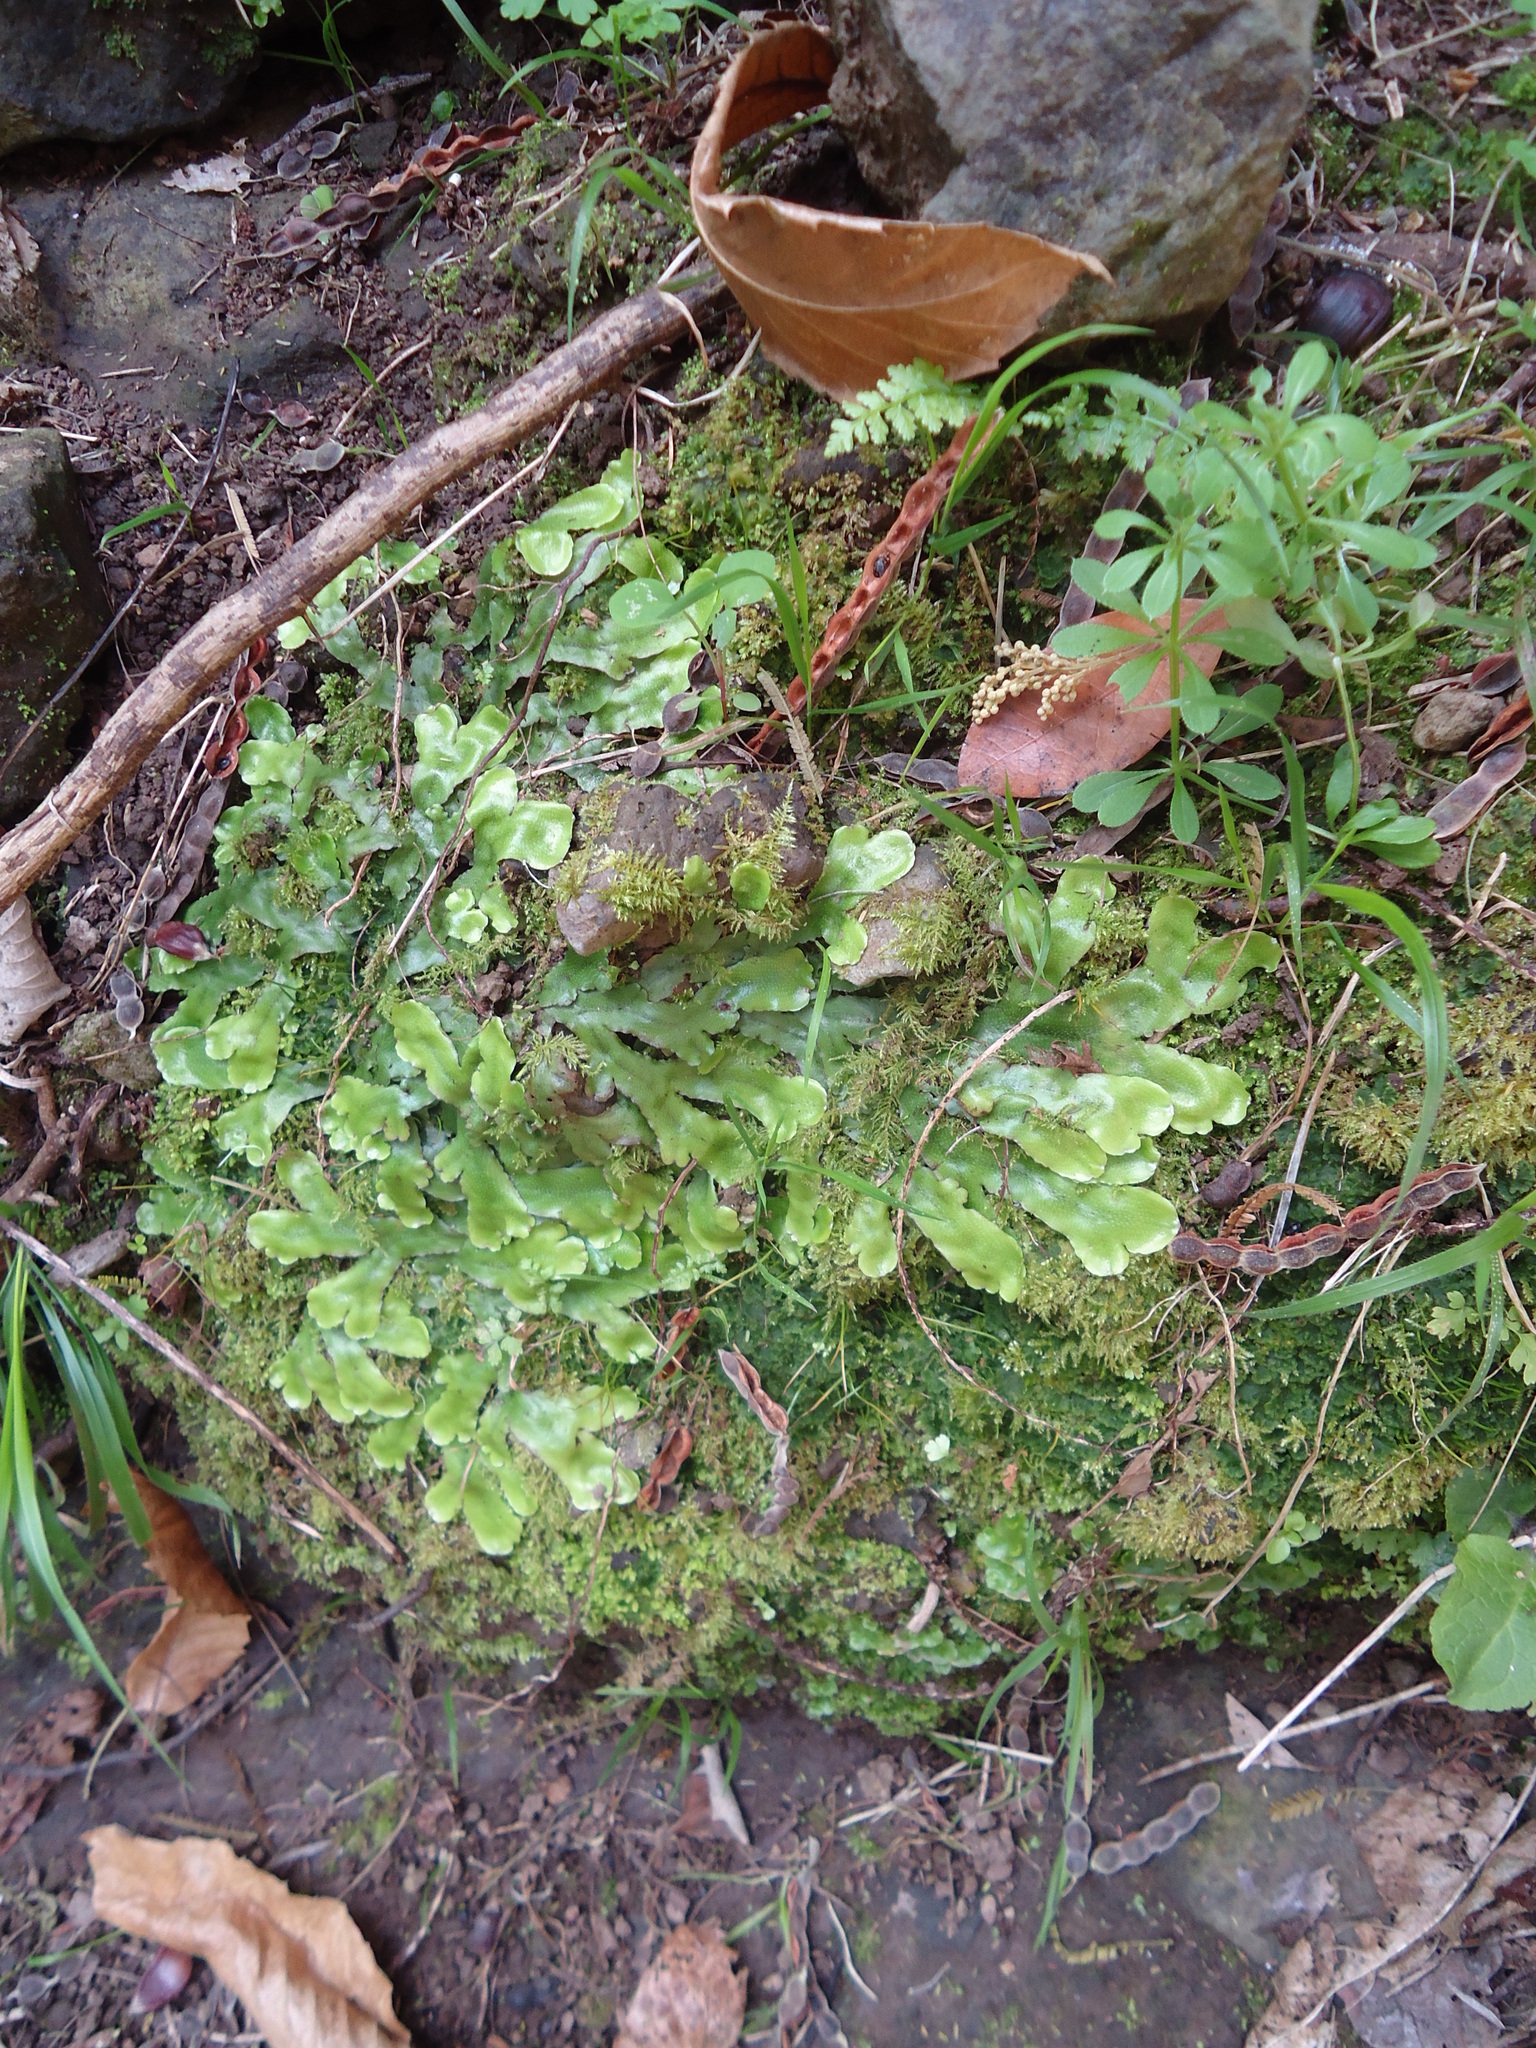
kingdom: Plantae
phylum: Marchantiophyta
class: Marchantiopsida
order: Marchantiales
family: Conocephalaceae
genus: Conocephalum
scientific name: Conocephalum conicum
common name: Great scented liverwort
